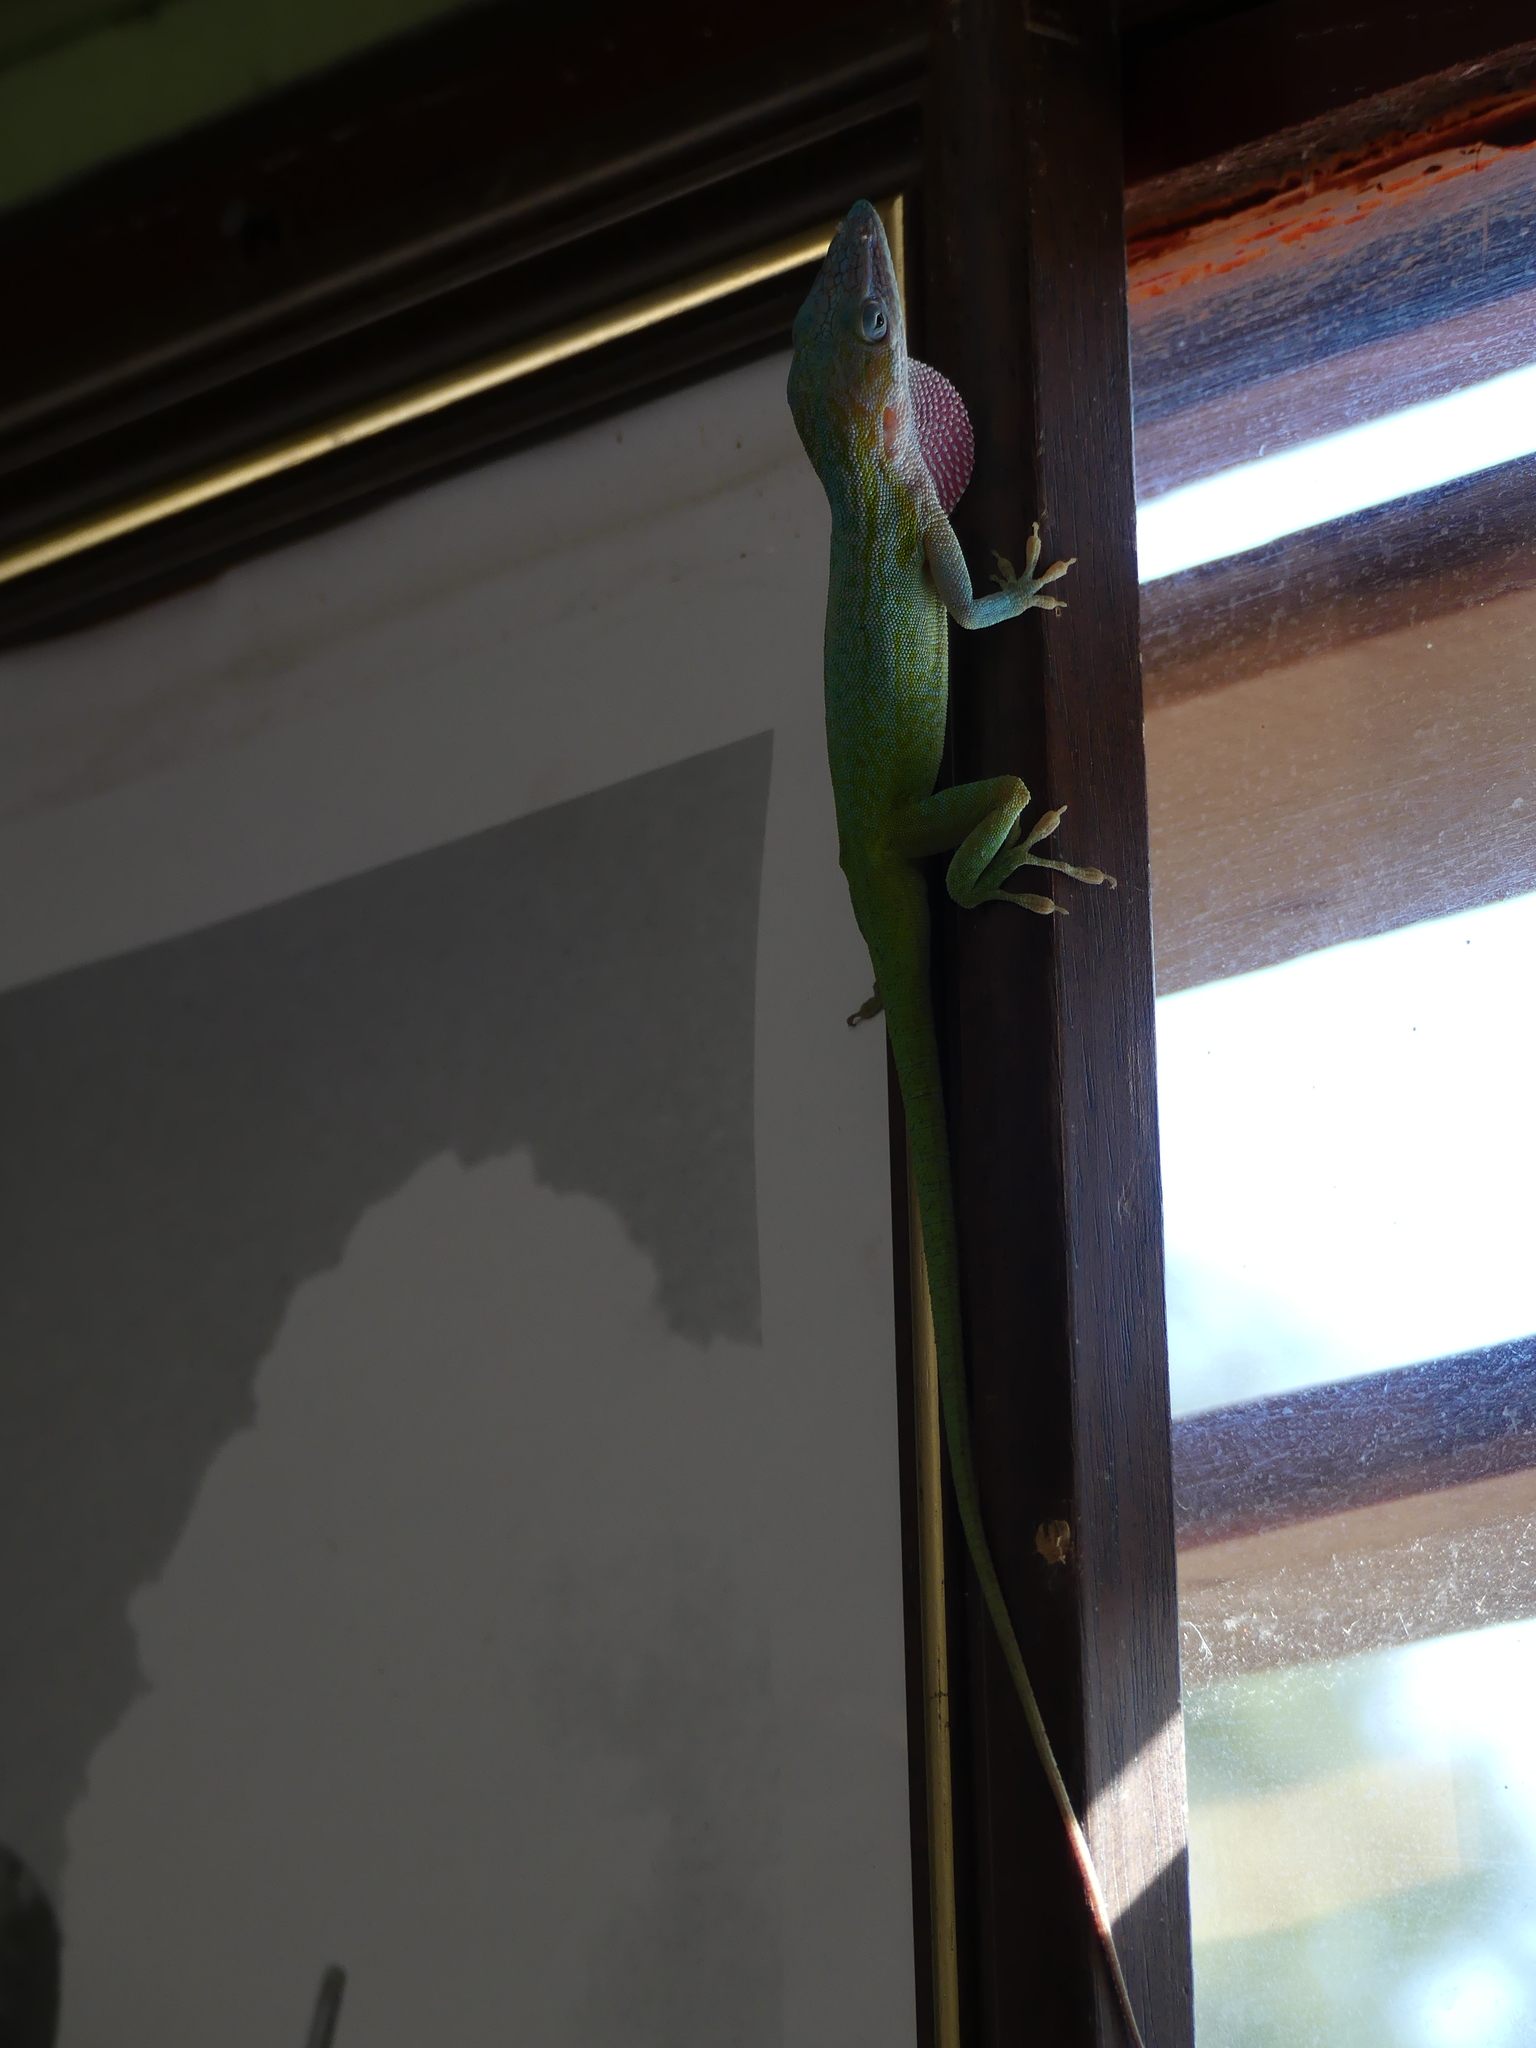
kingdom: Animalia
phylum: Chordata
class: Squamata
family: Dactyloidae
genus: Anolis
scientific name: Anolis allisoni
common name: Allison's anole
